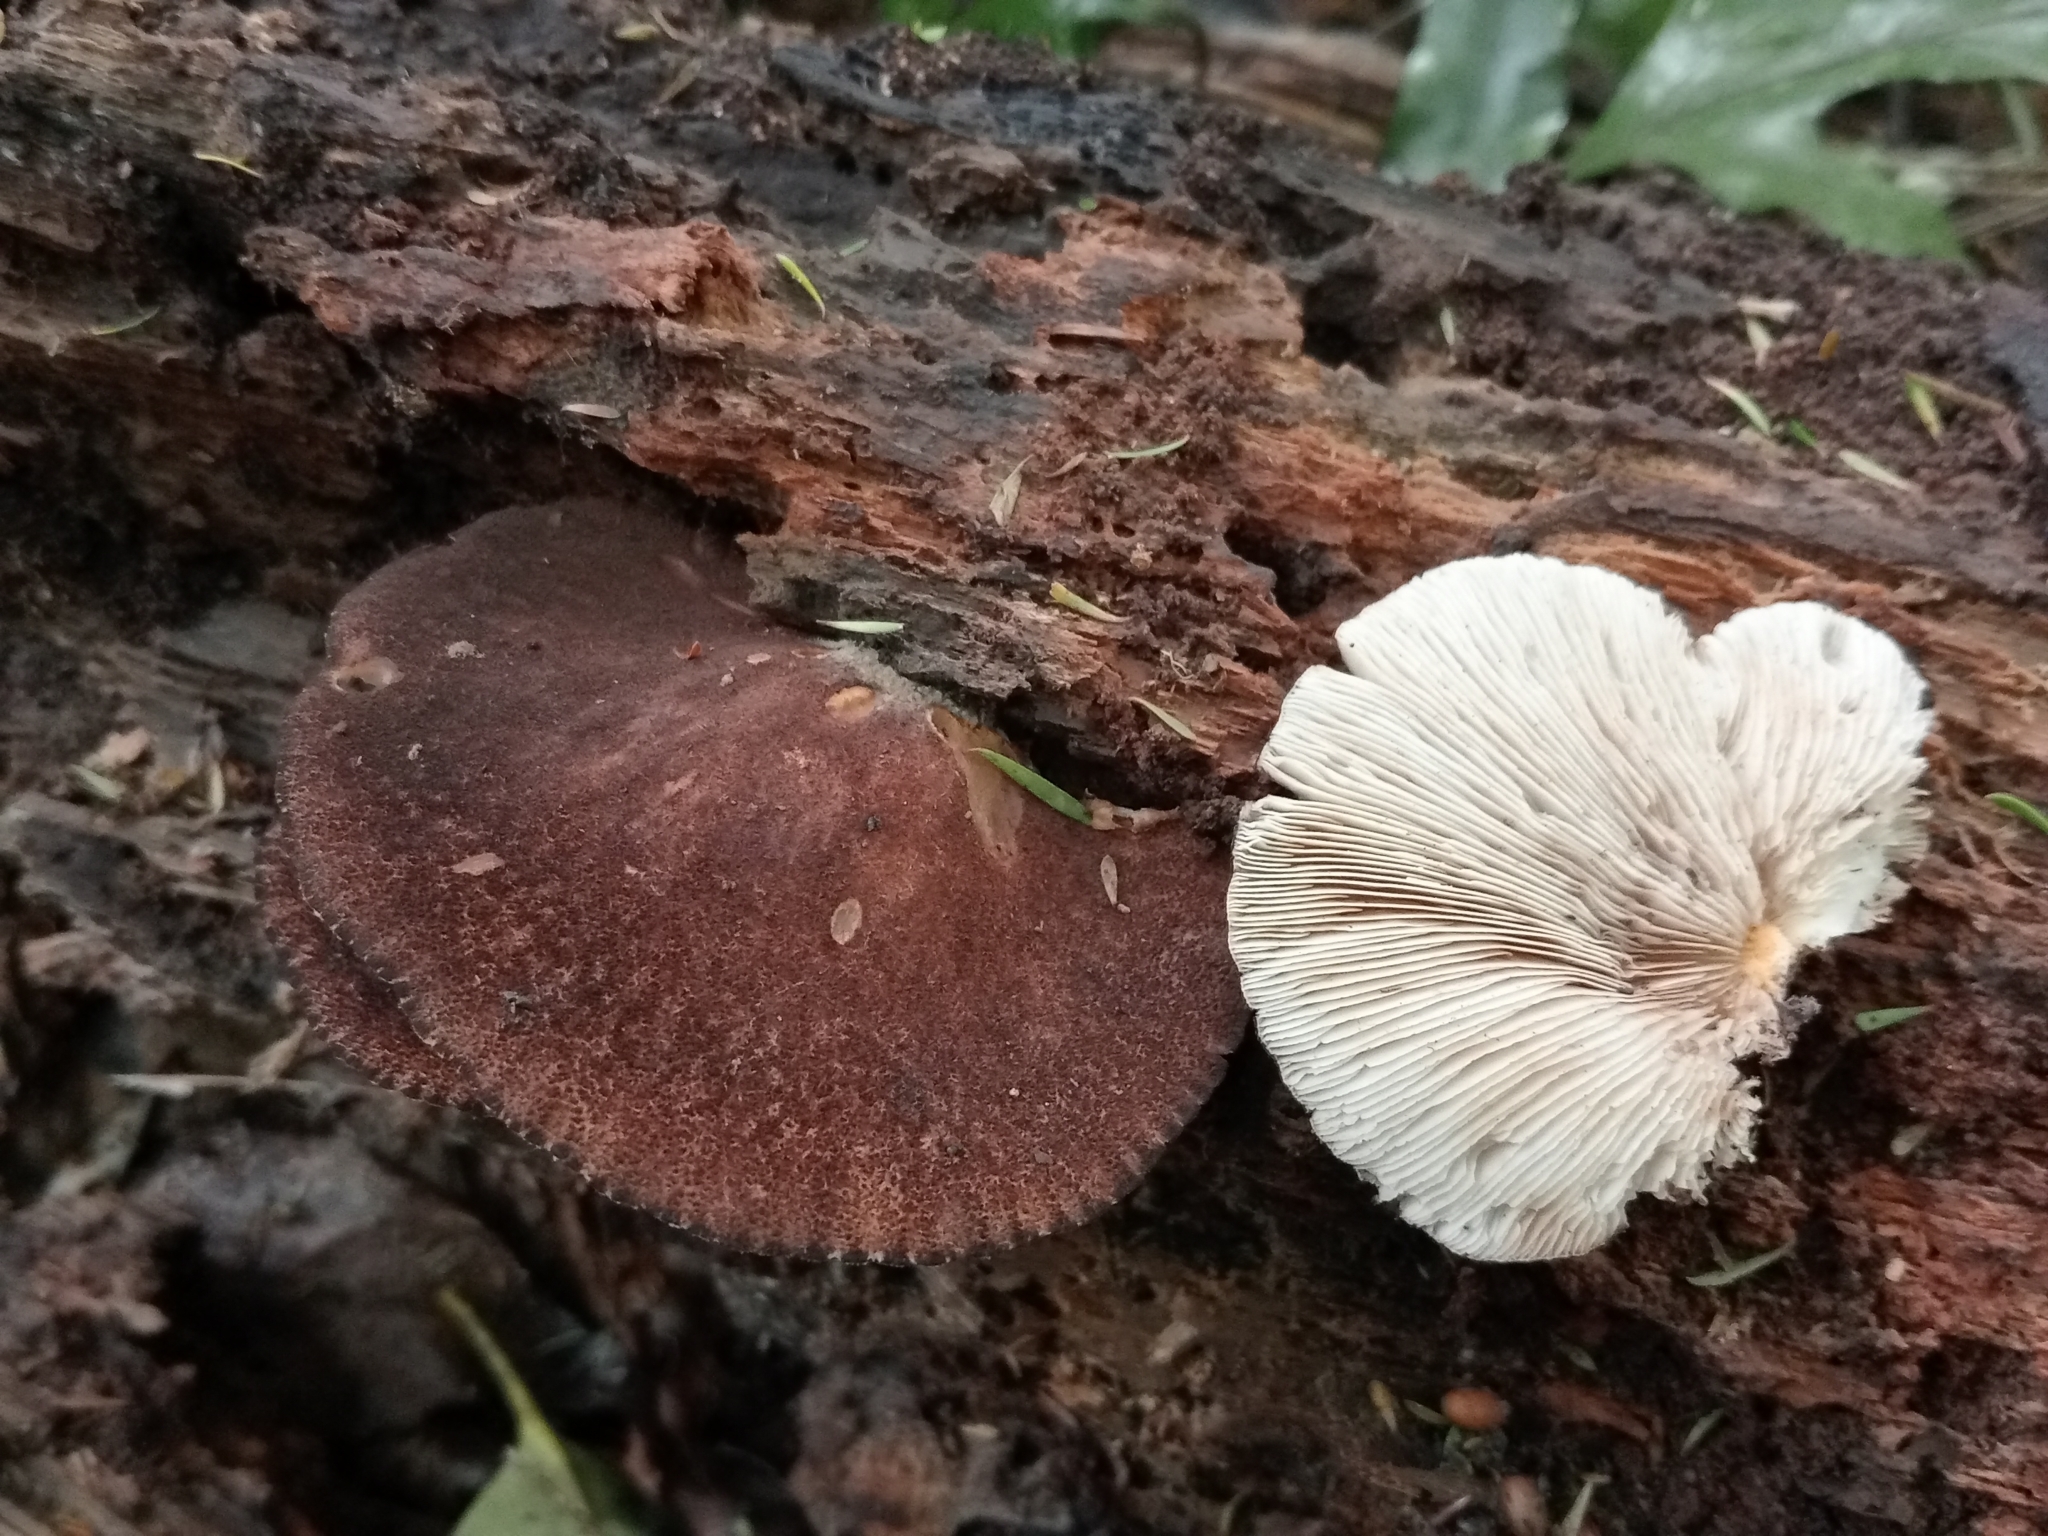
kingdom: Fungi
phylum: Basidiomycota
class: Agaricomycetes
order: Agaricales
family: Crepidotaceae
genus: Crepidotus
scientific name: Crepidotus fuscovelutinus
